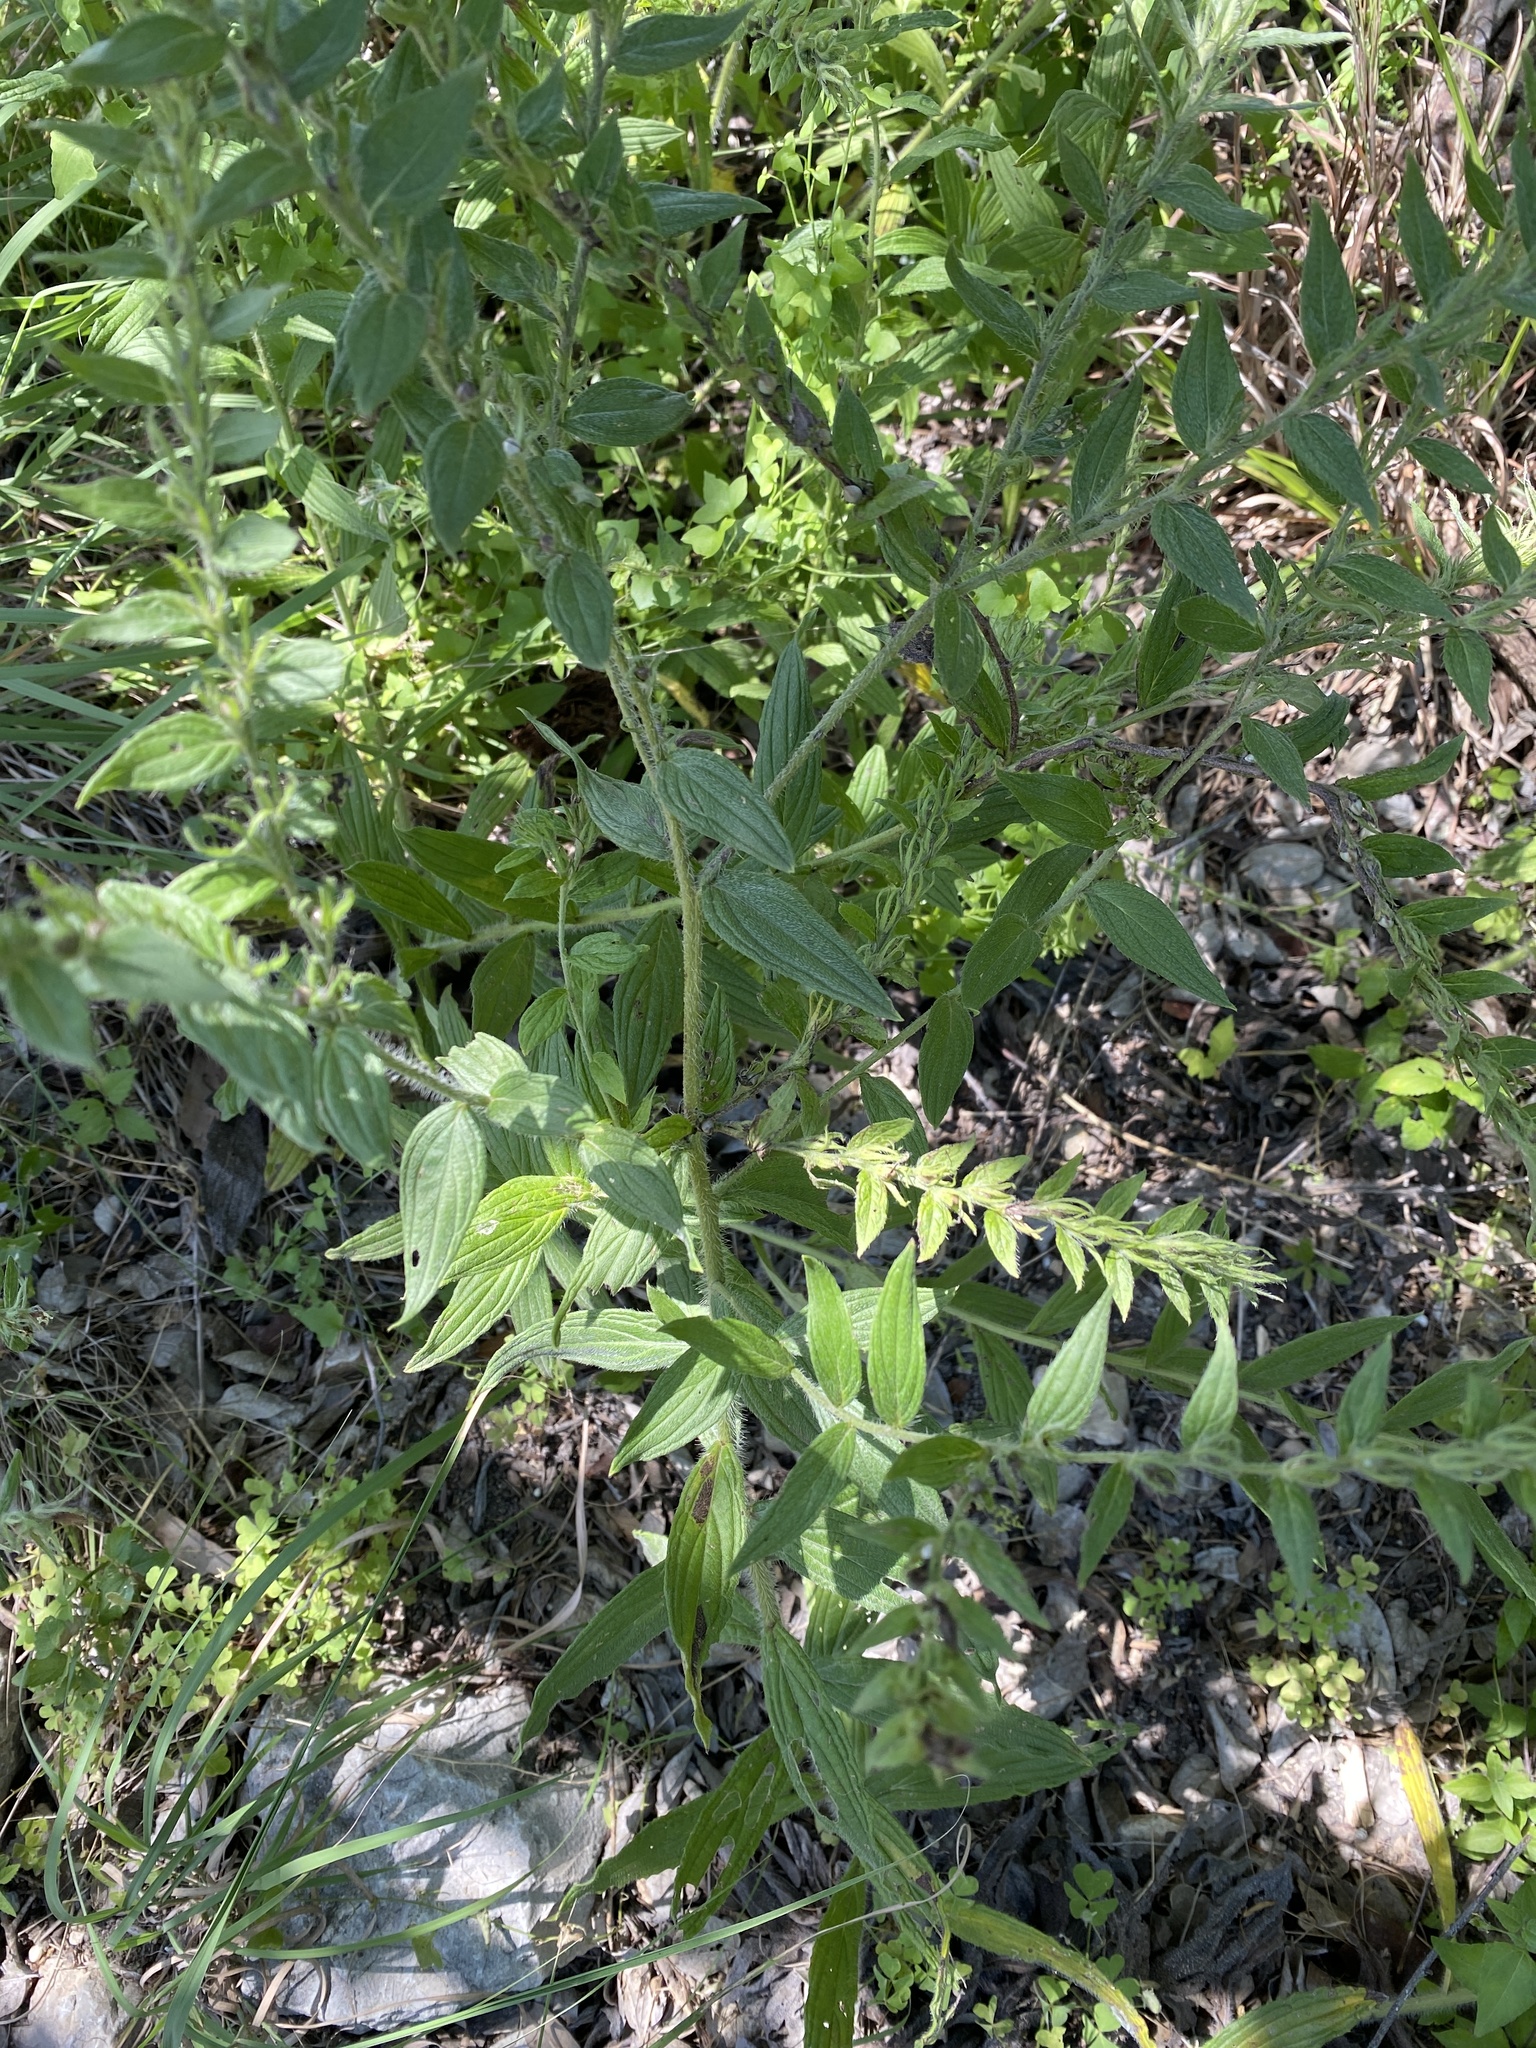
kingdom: Plantae
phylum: Tracheophyta
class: Magnoliopsida
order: Boraginales
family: Boraginaceae
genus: Lithospermum
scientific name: Lithospermum caroliniense
